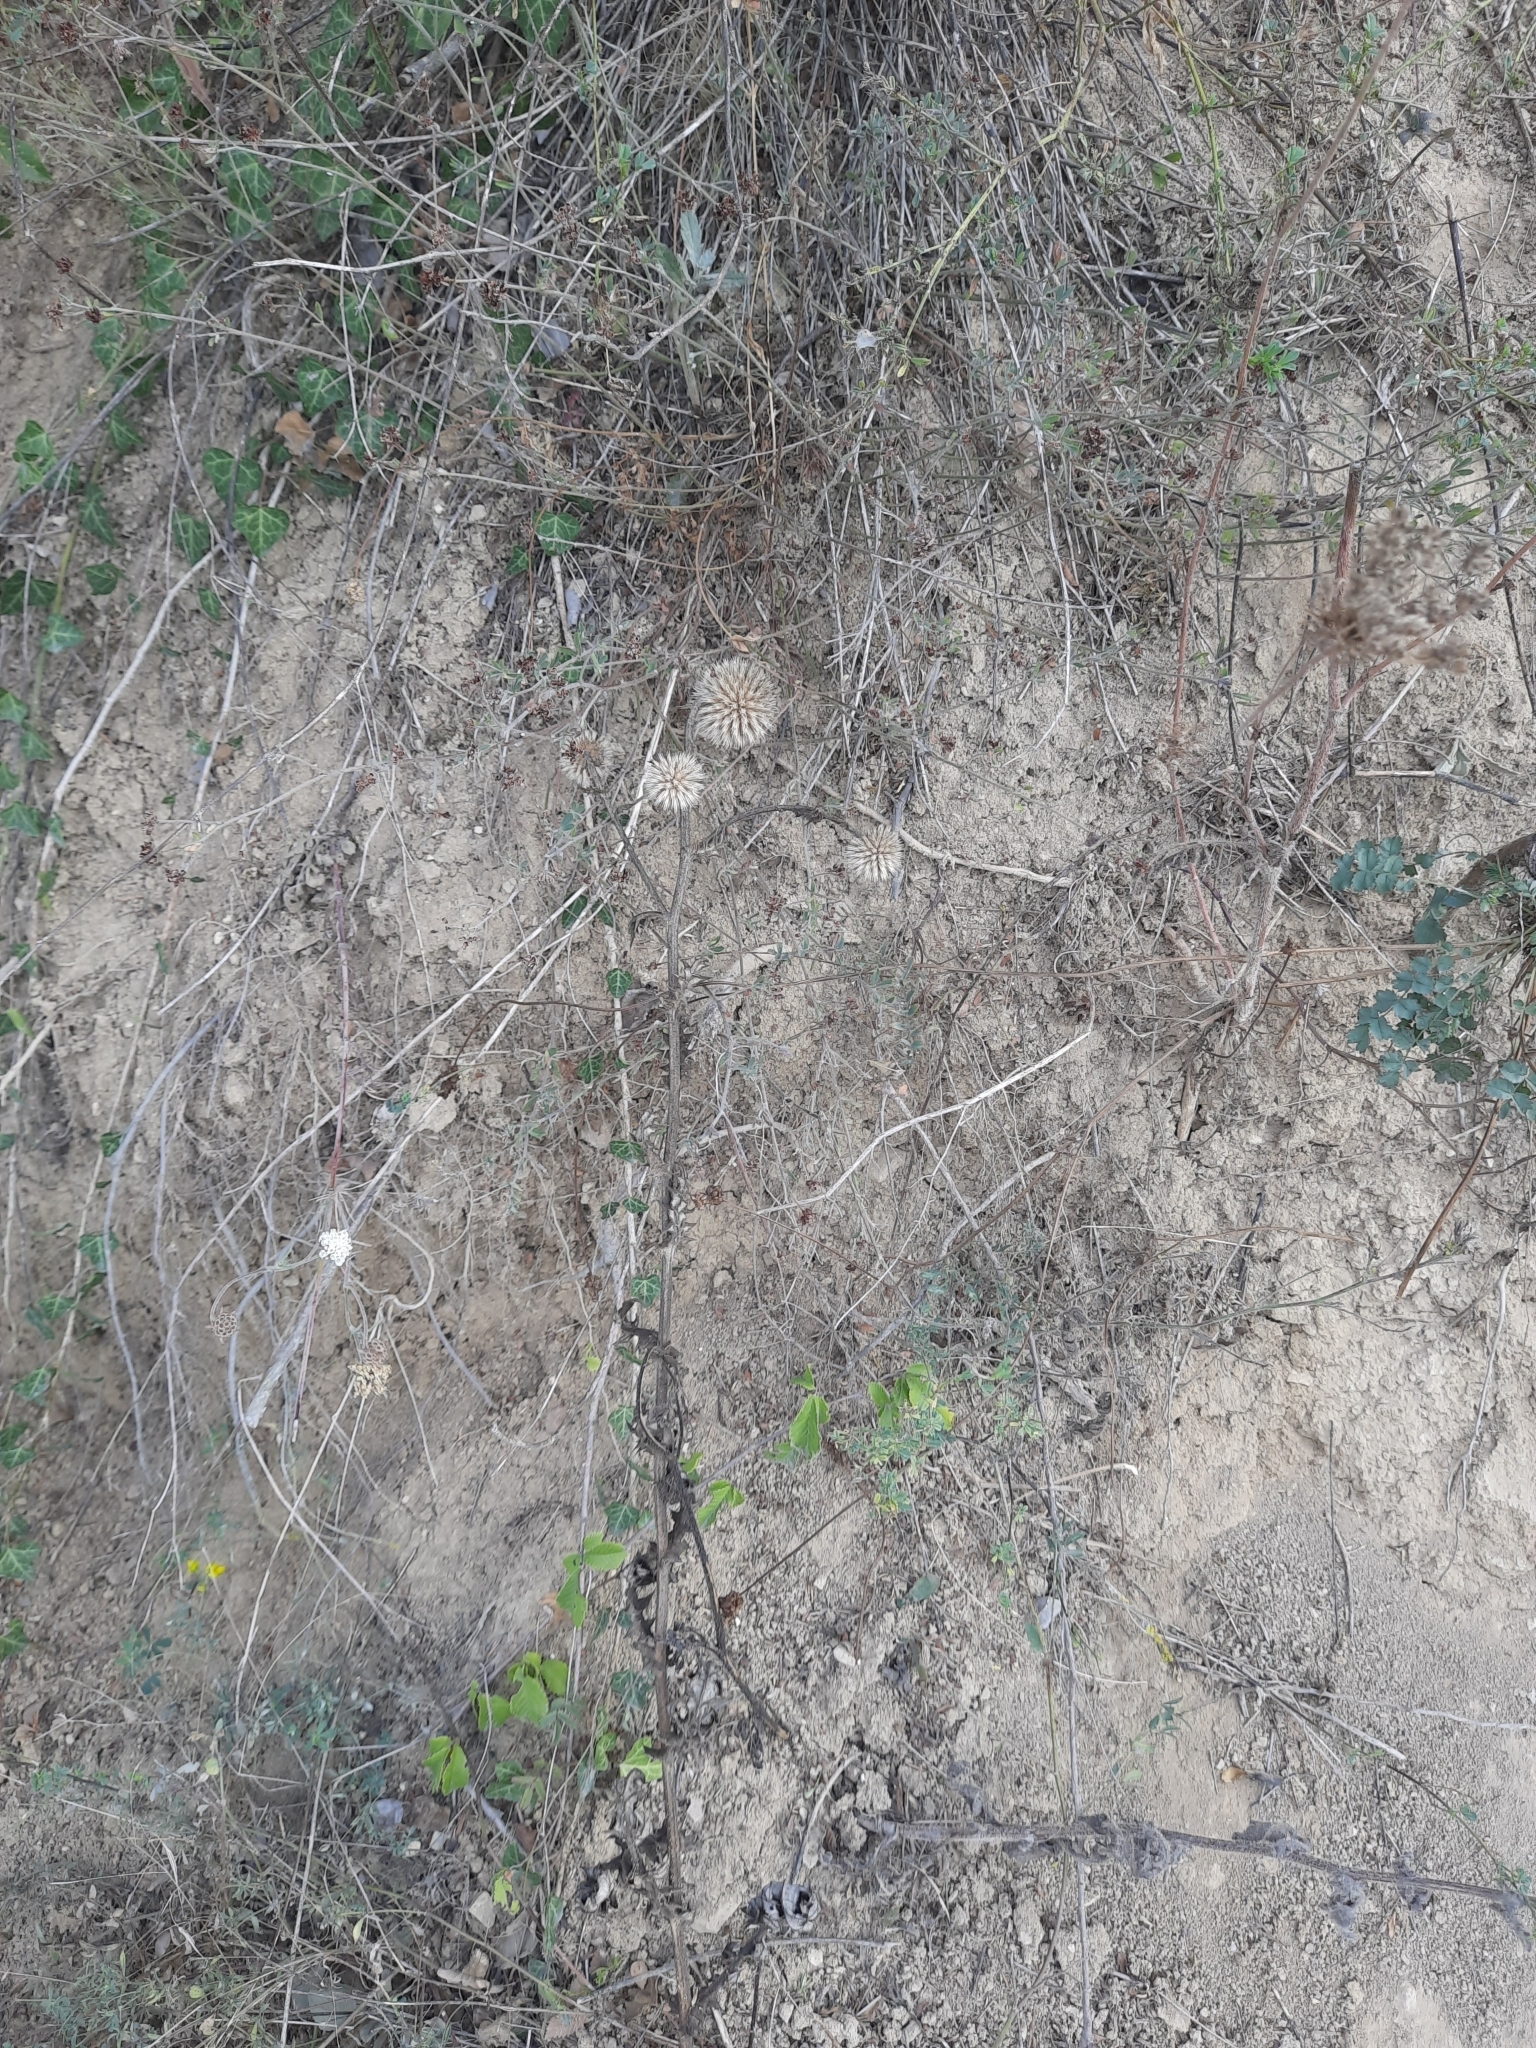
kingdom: Plantae
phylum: Tracheophyta
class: Magnoliopsida
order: Asterales
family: Asteraceae
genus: Echinops
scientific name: Echinops sphaerocephalus
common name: Glandular globe-thistle
